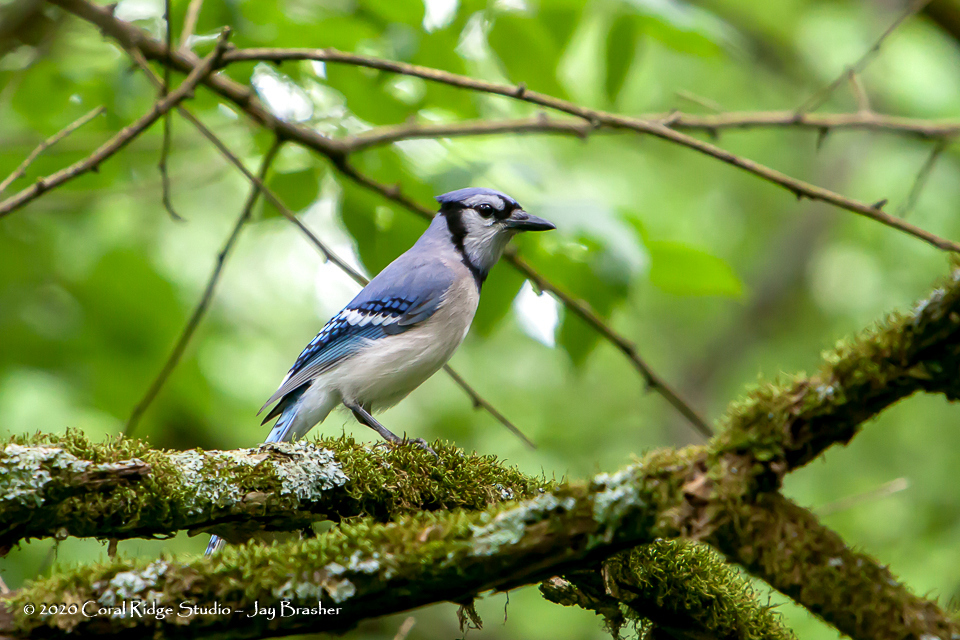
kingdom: Animalia
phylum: Chordata
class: Aves
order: Passeriformes
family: Corvidae
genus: Cyanocitta
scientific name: Cyanocitta cristata
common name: Blue jay
